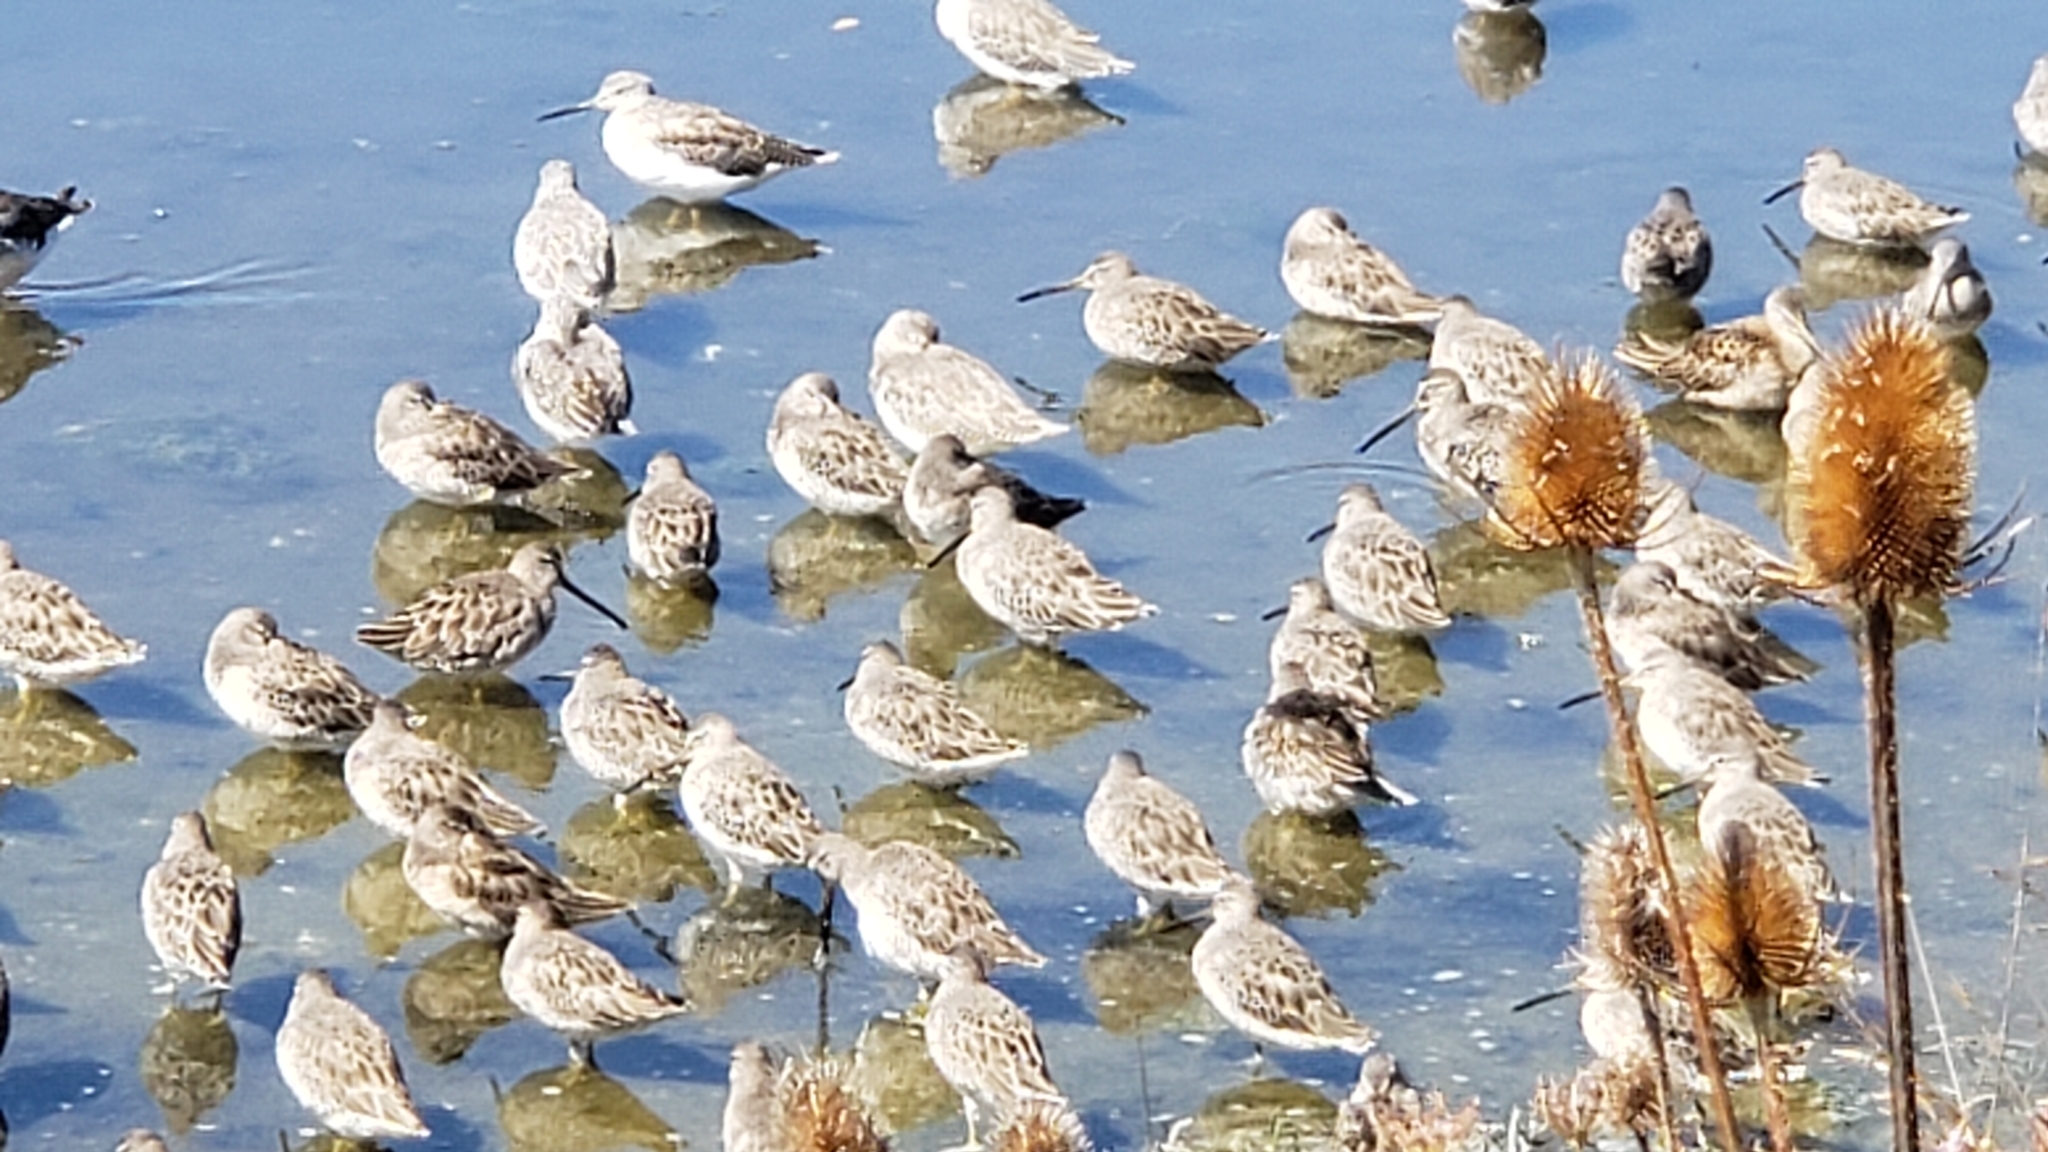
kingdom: Animalia
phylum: Chordata
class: Aves
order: Charadriiformes
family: Scolopacidae
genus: Limnodromus
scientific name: Limnodromus
